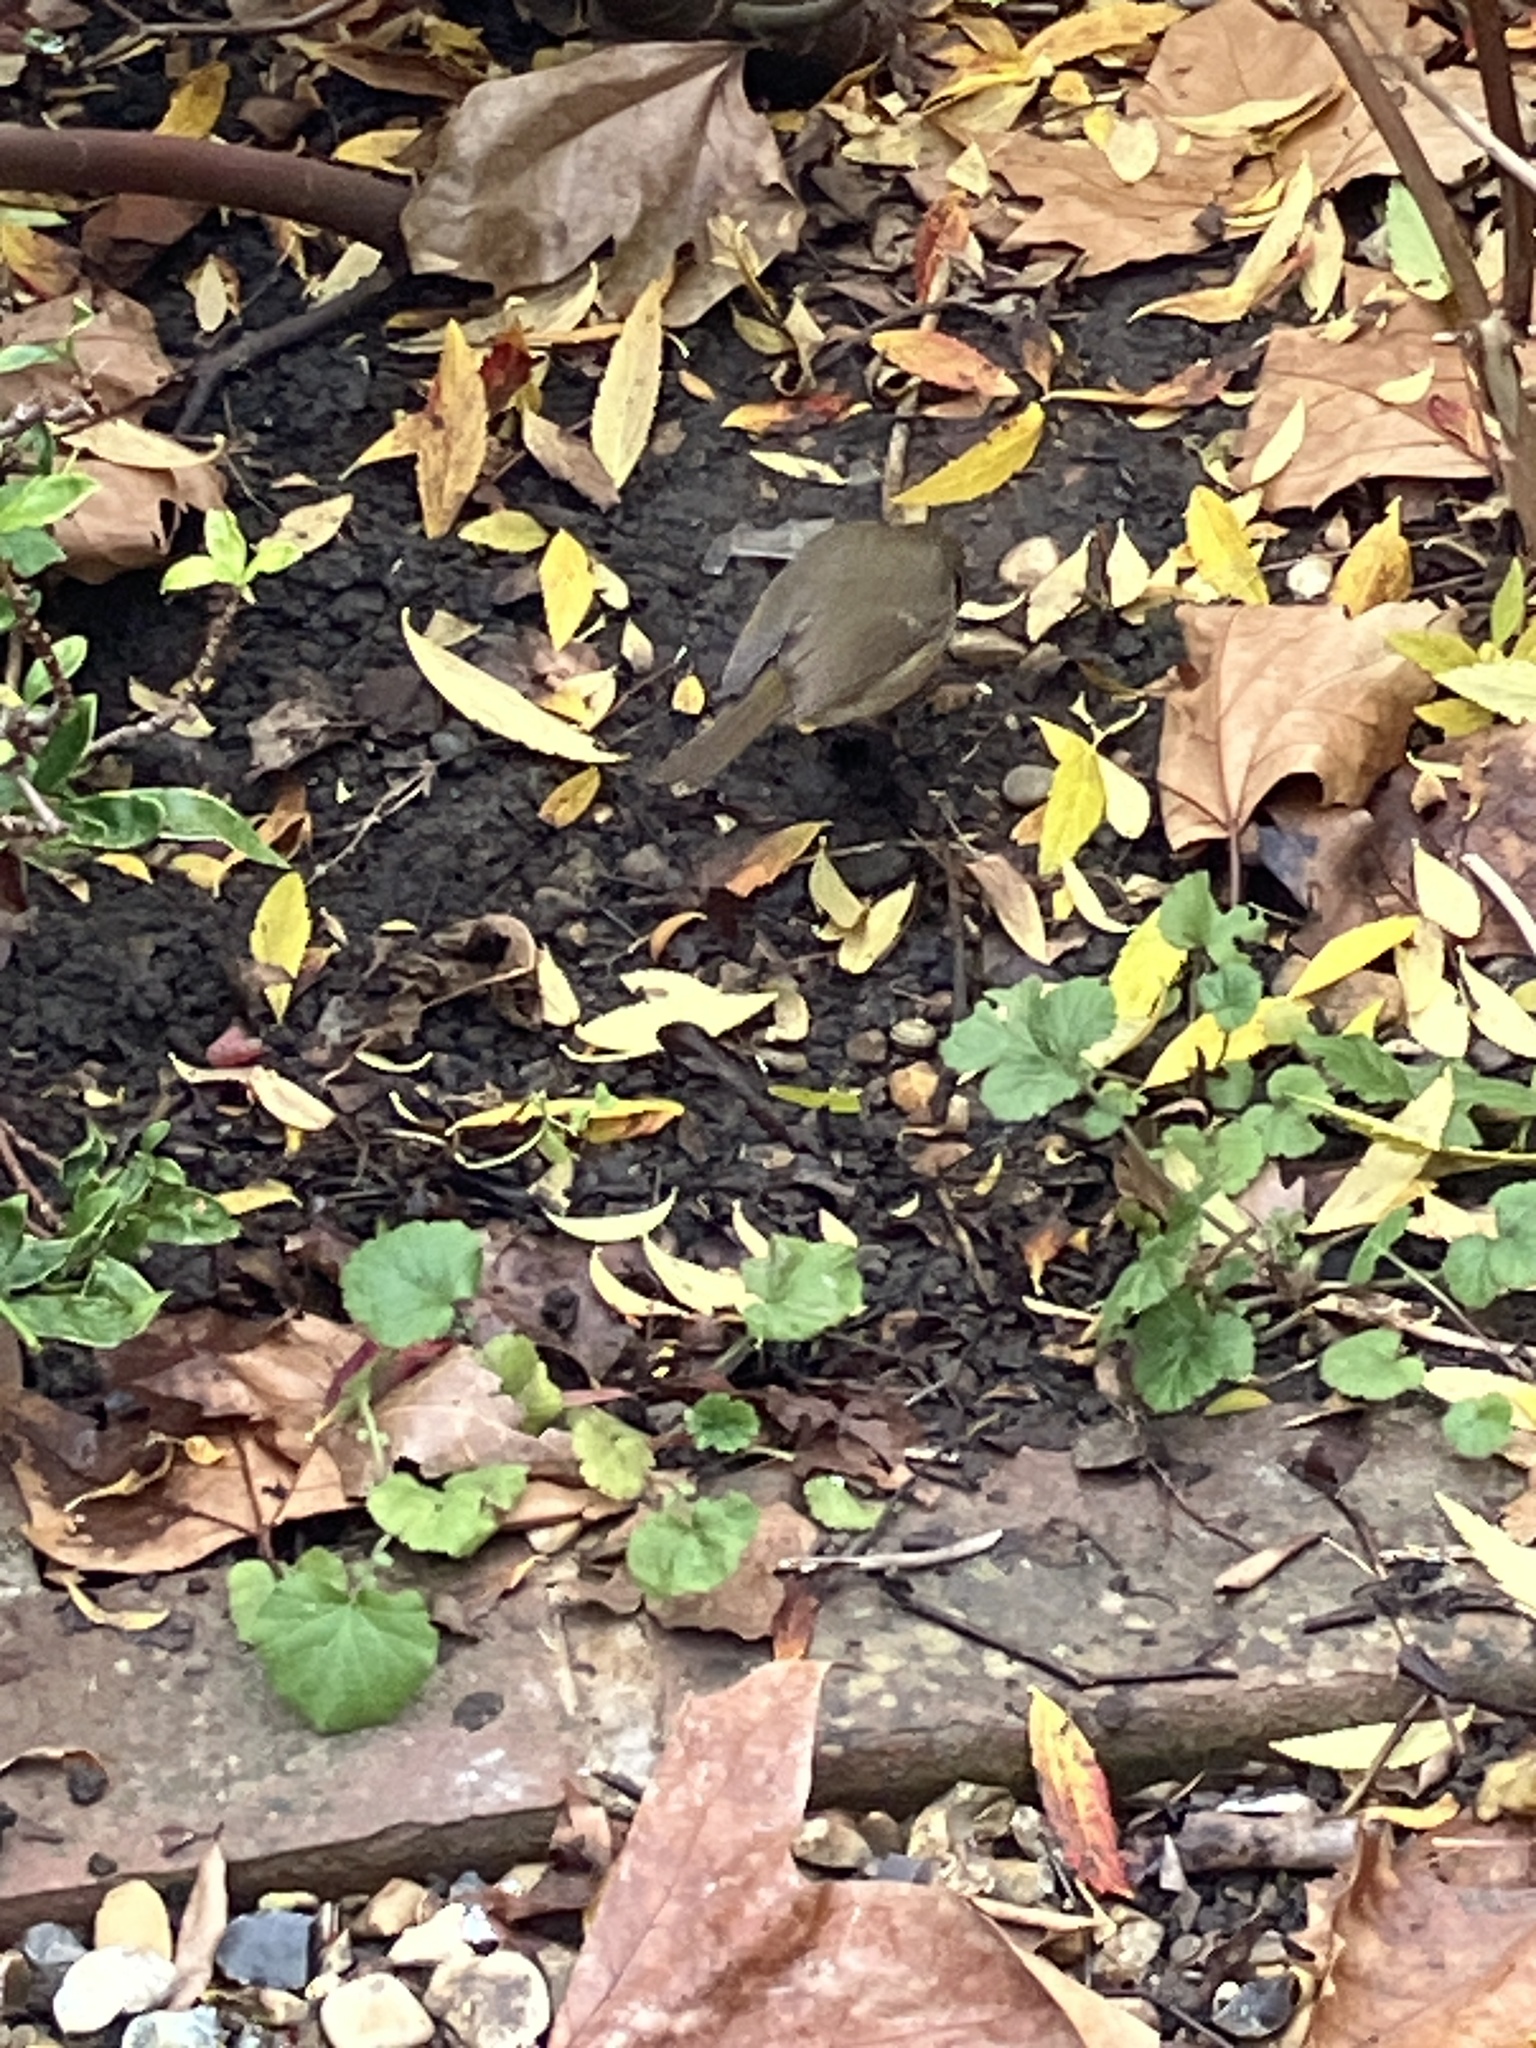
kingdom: Animalia
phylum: Chordata
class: Aves
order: Passeriformes
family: Muscicapidae
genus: Erithacus
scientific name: Erithacus rubecula
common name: European robin
